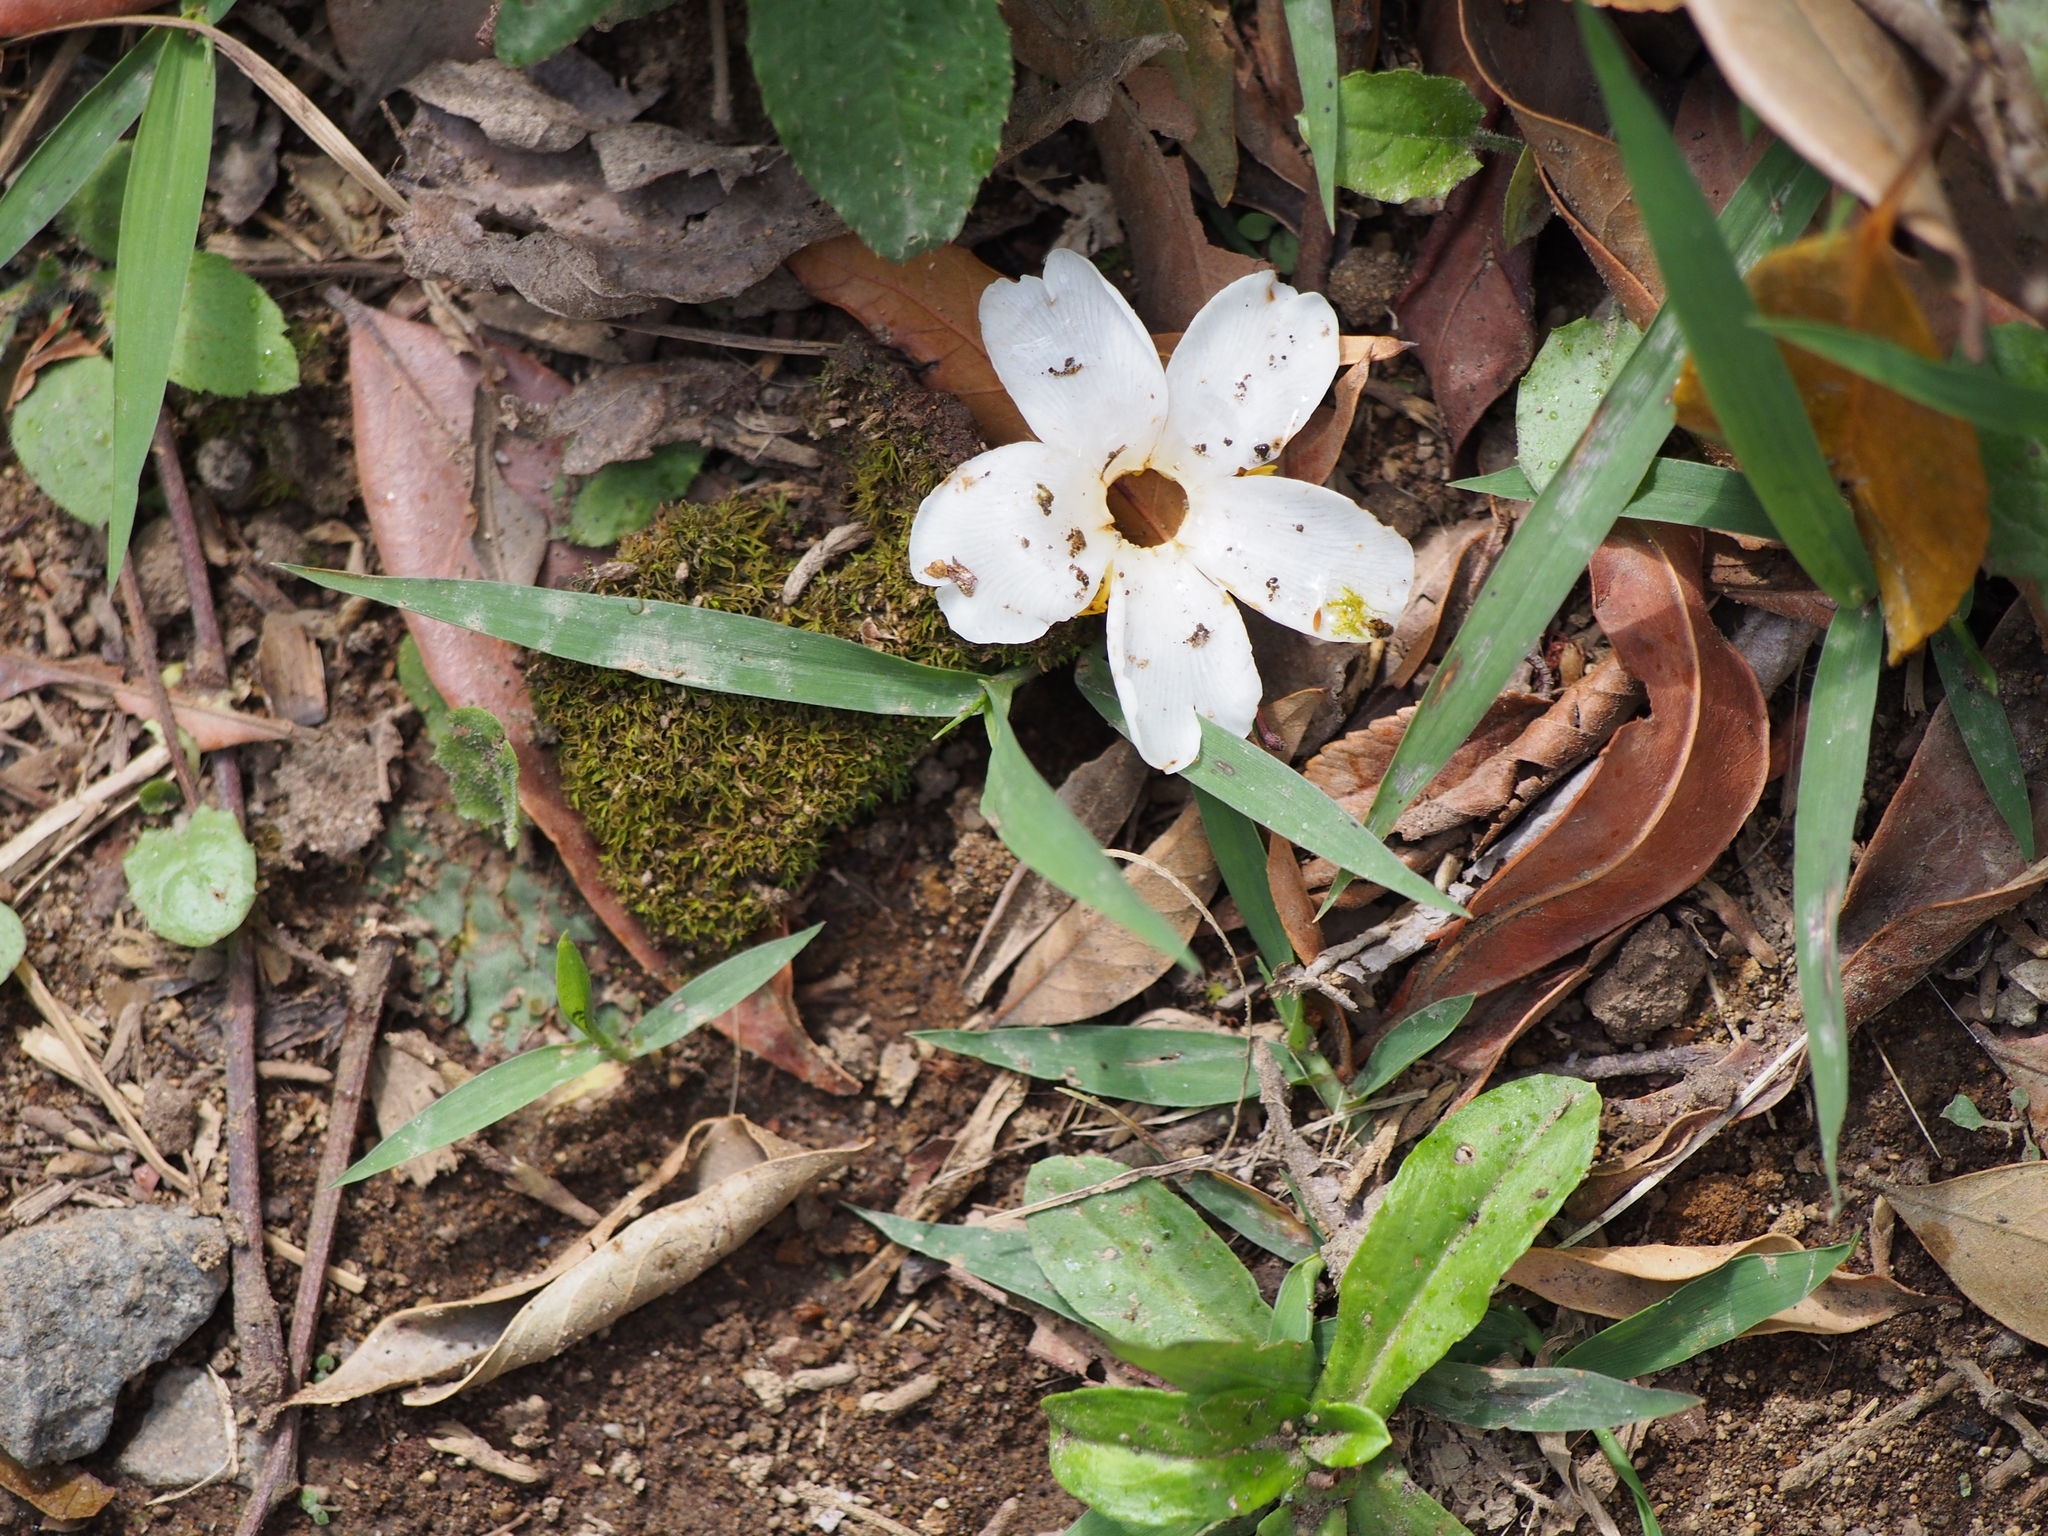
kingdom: Plantae
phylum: Tracheophyta
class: Magnoliopsida
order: Ericales
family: Actinidiaceae
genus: Saurauia
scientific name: Saurauia montana
